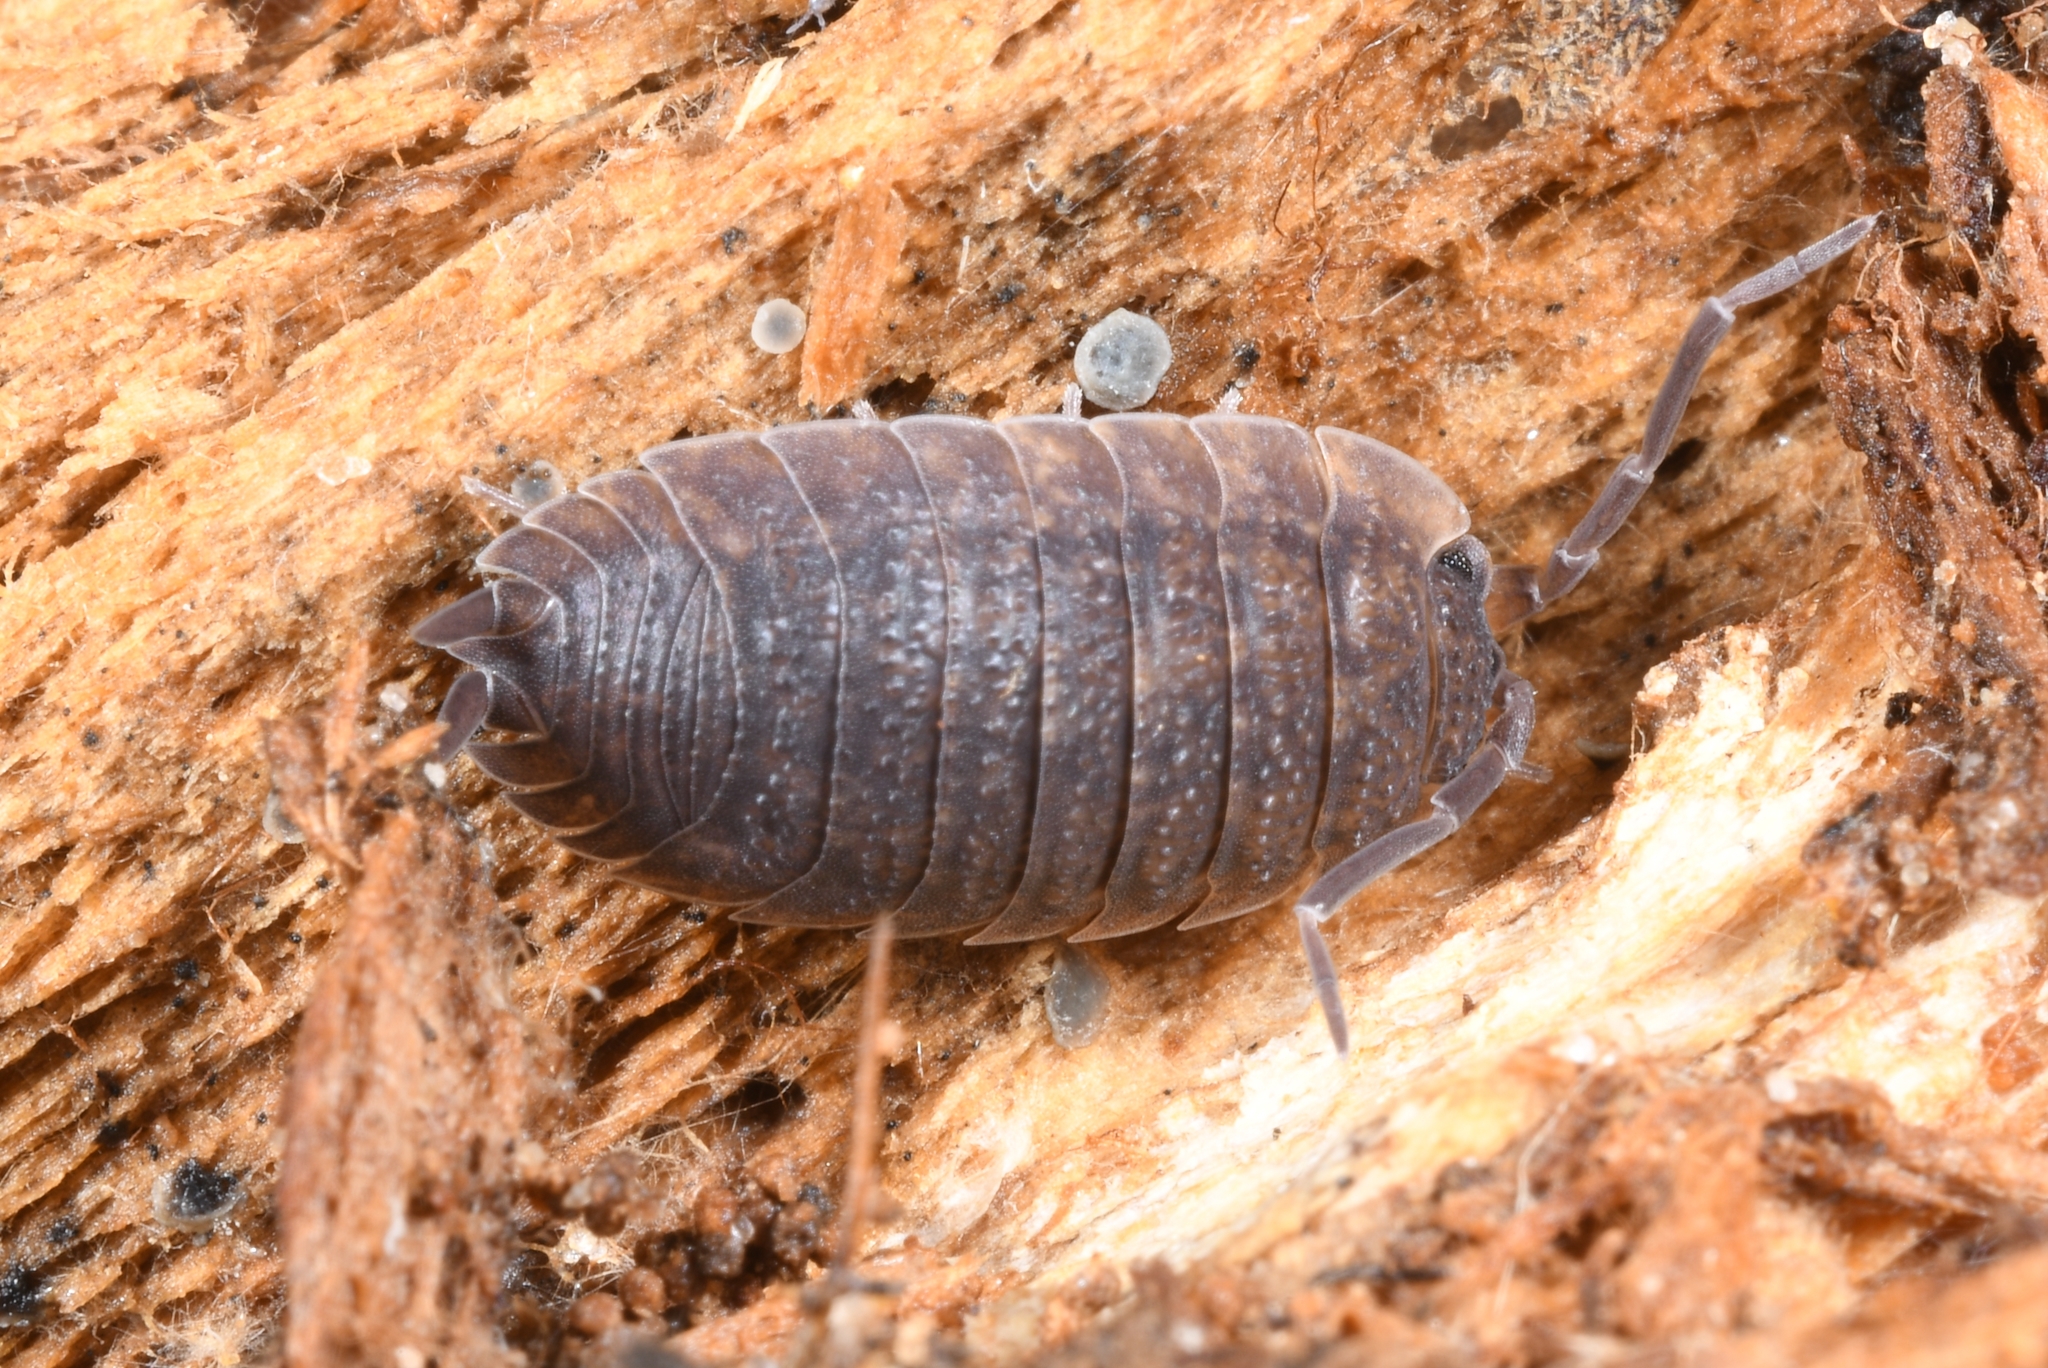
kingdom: Animalia
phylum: Arthropoda
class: Malacostraca
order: Isopoda
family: Porcellionidae
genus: Porcellio
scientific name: Porcellio scaber
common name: Common rough woodlouse
